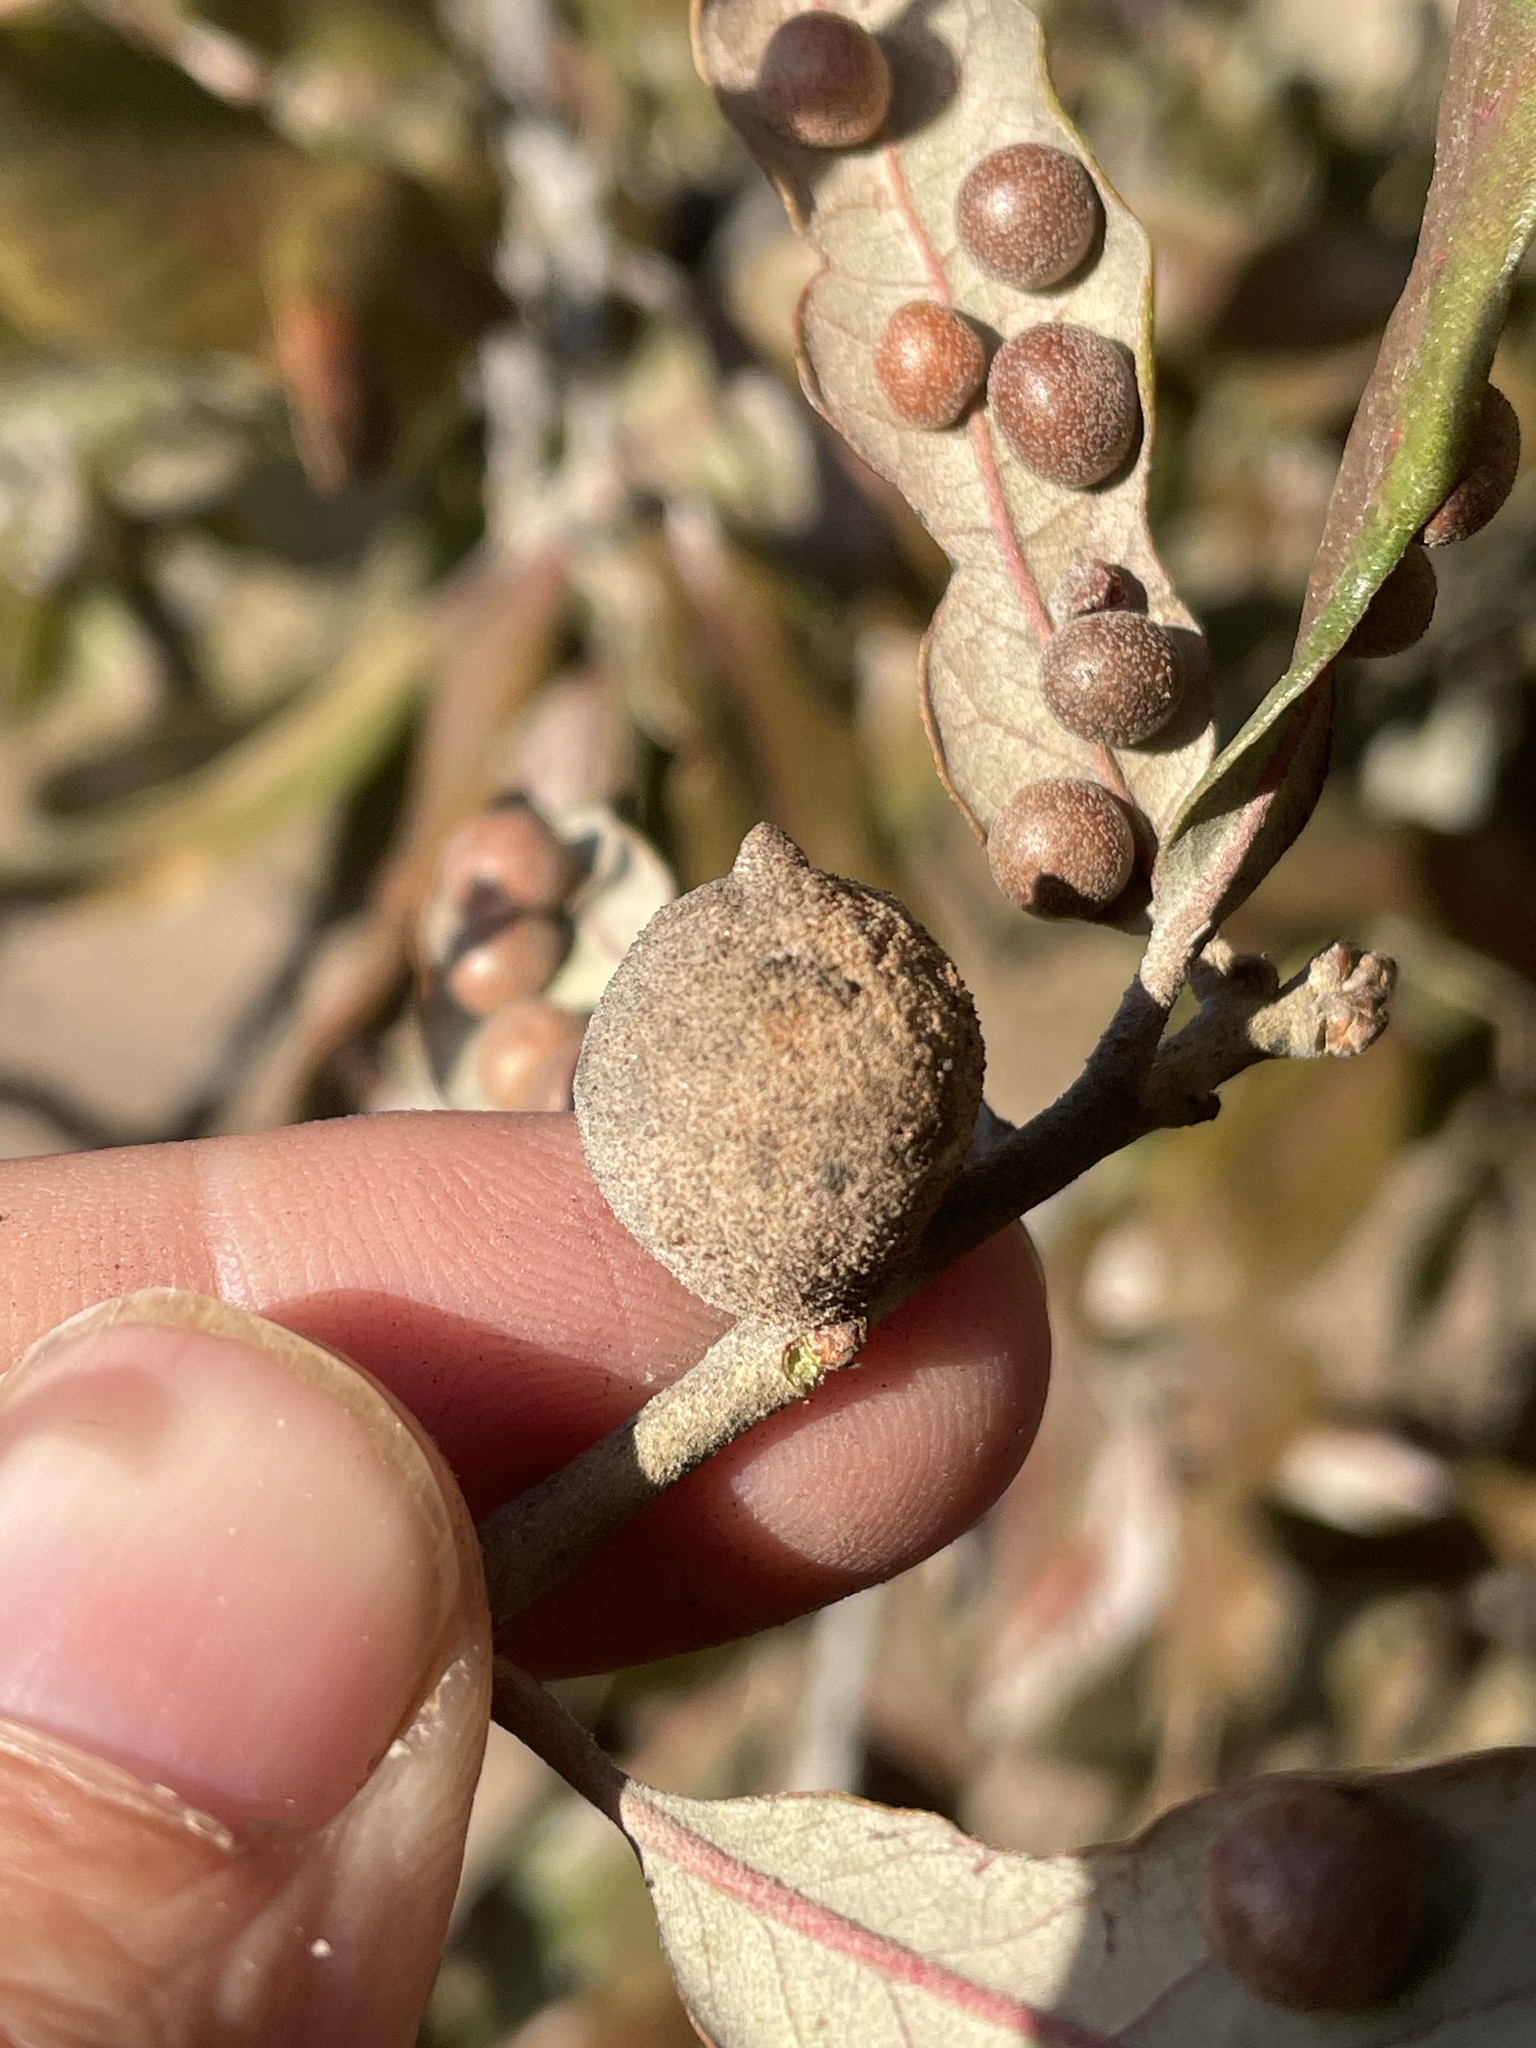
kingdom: Animalia
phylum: Arthropoda
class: Insecta
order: Hymenoptera
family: Cynipidae
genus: Disholcaspis
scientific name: Disholcaspis
